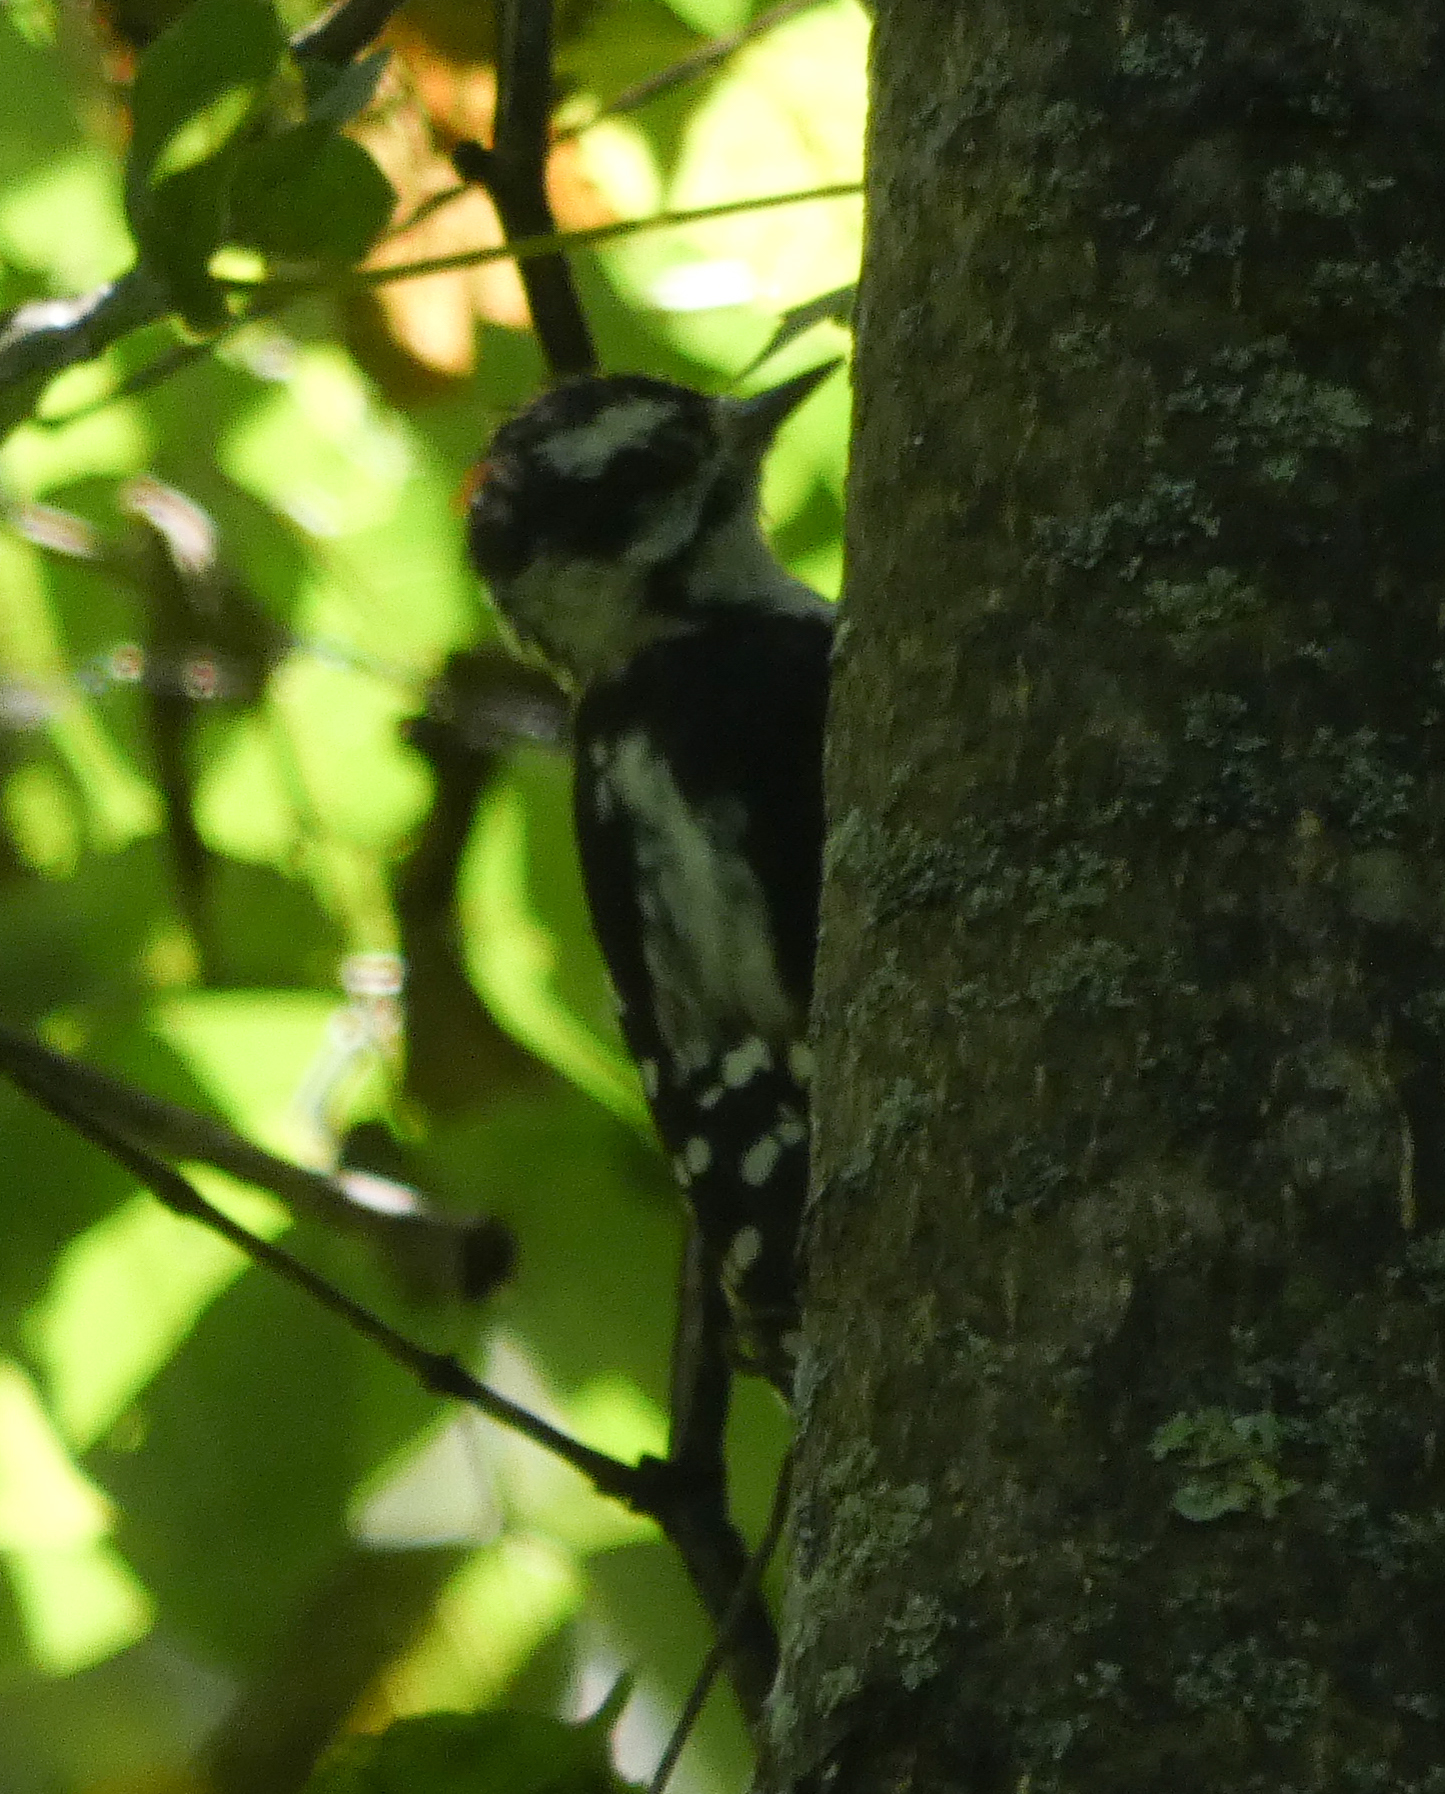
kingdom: Animalia
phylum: Chordata
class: Aves
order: Piciformes
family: Picidae
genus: Dryobates
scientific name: Dryobates pubescens
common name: Downy woodpecker
